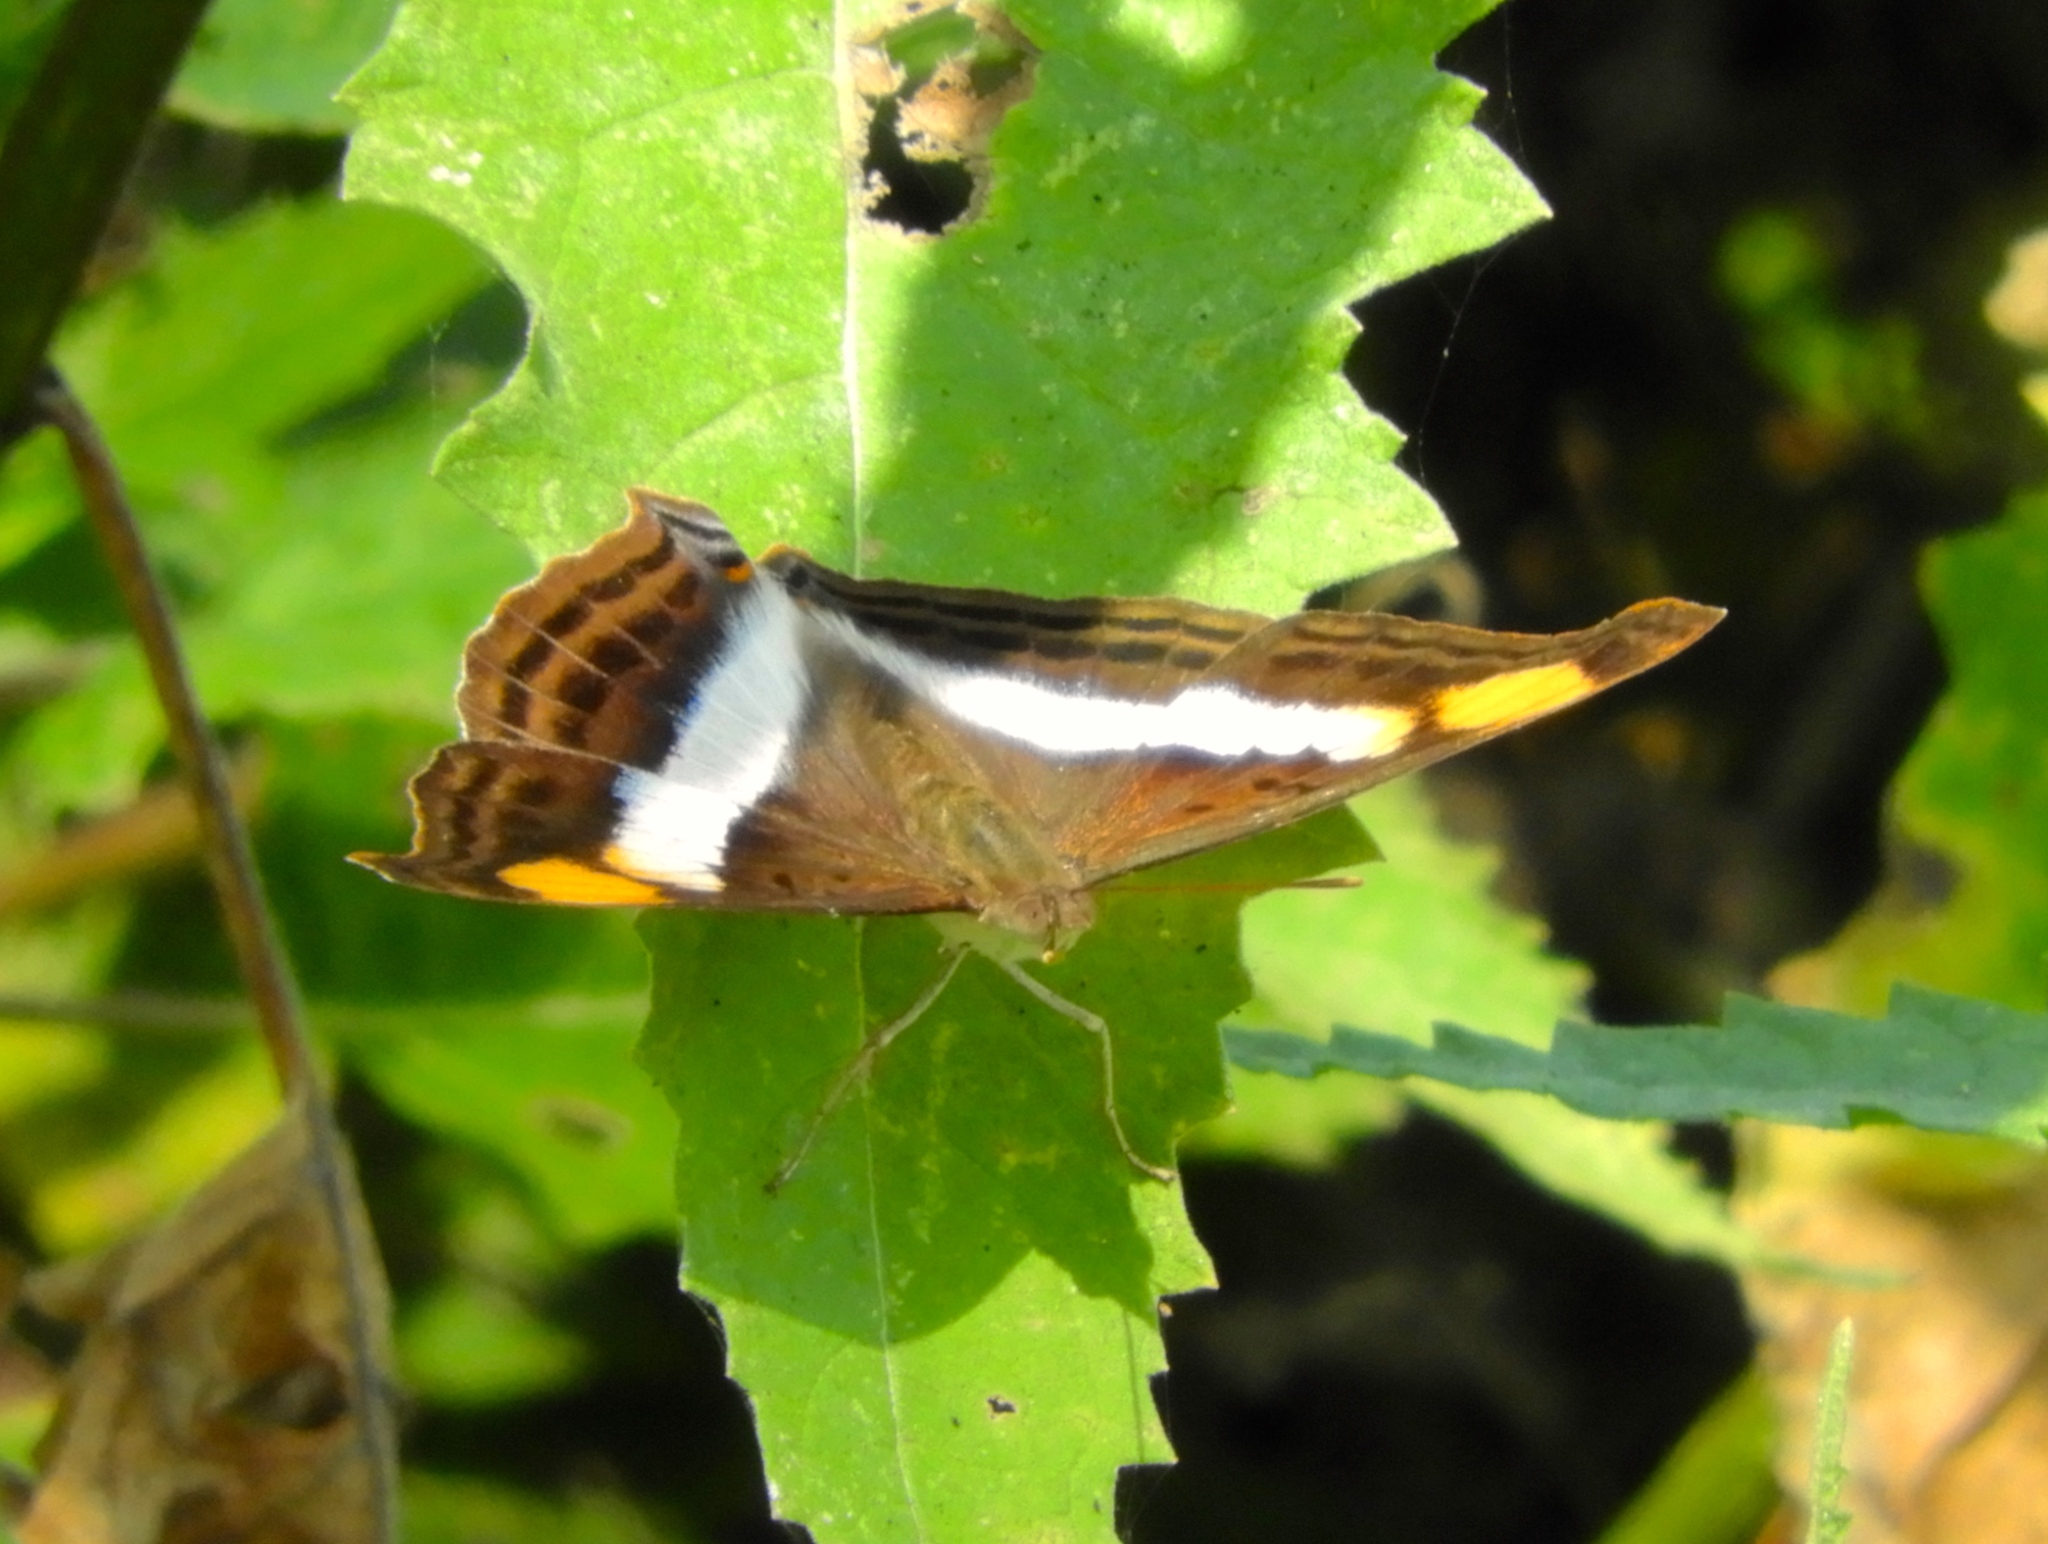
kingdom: Animalia
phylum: Arthropoda
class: Insecta
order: Lepidoptera
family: Nymphalidae
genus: Doxocopa
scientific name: Doxocopa laure
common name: Silver emperor
